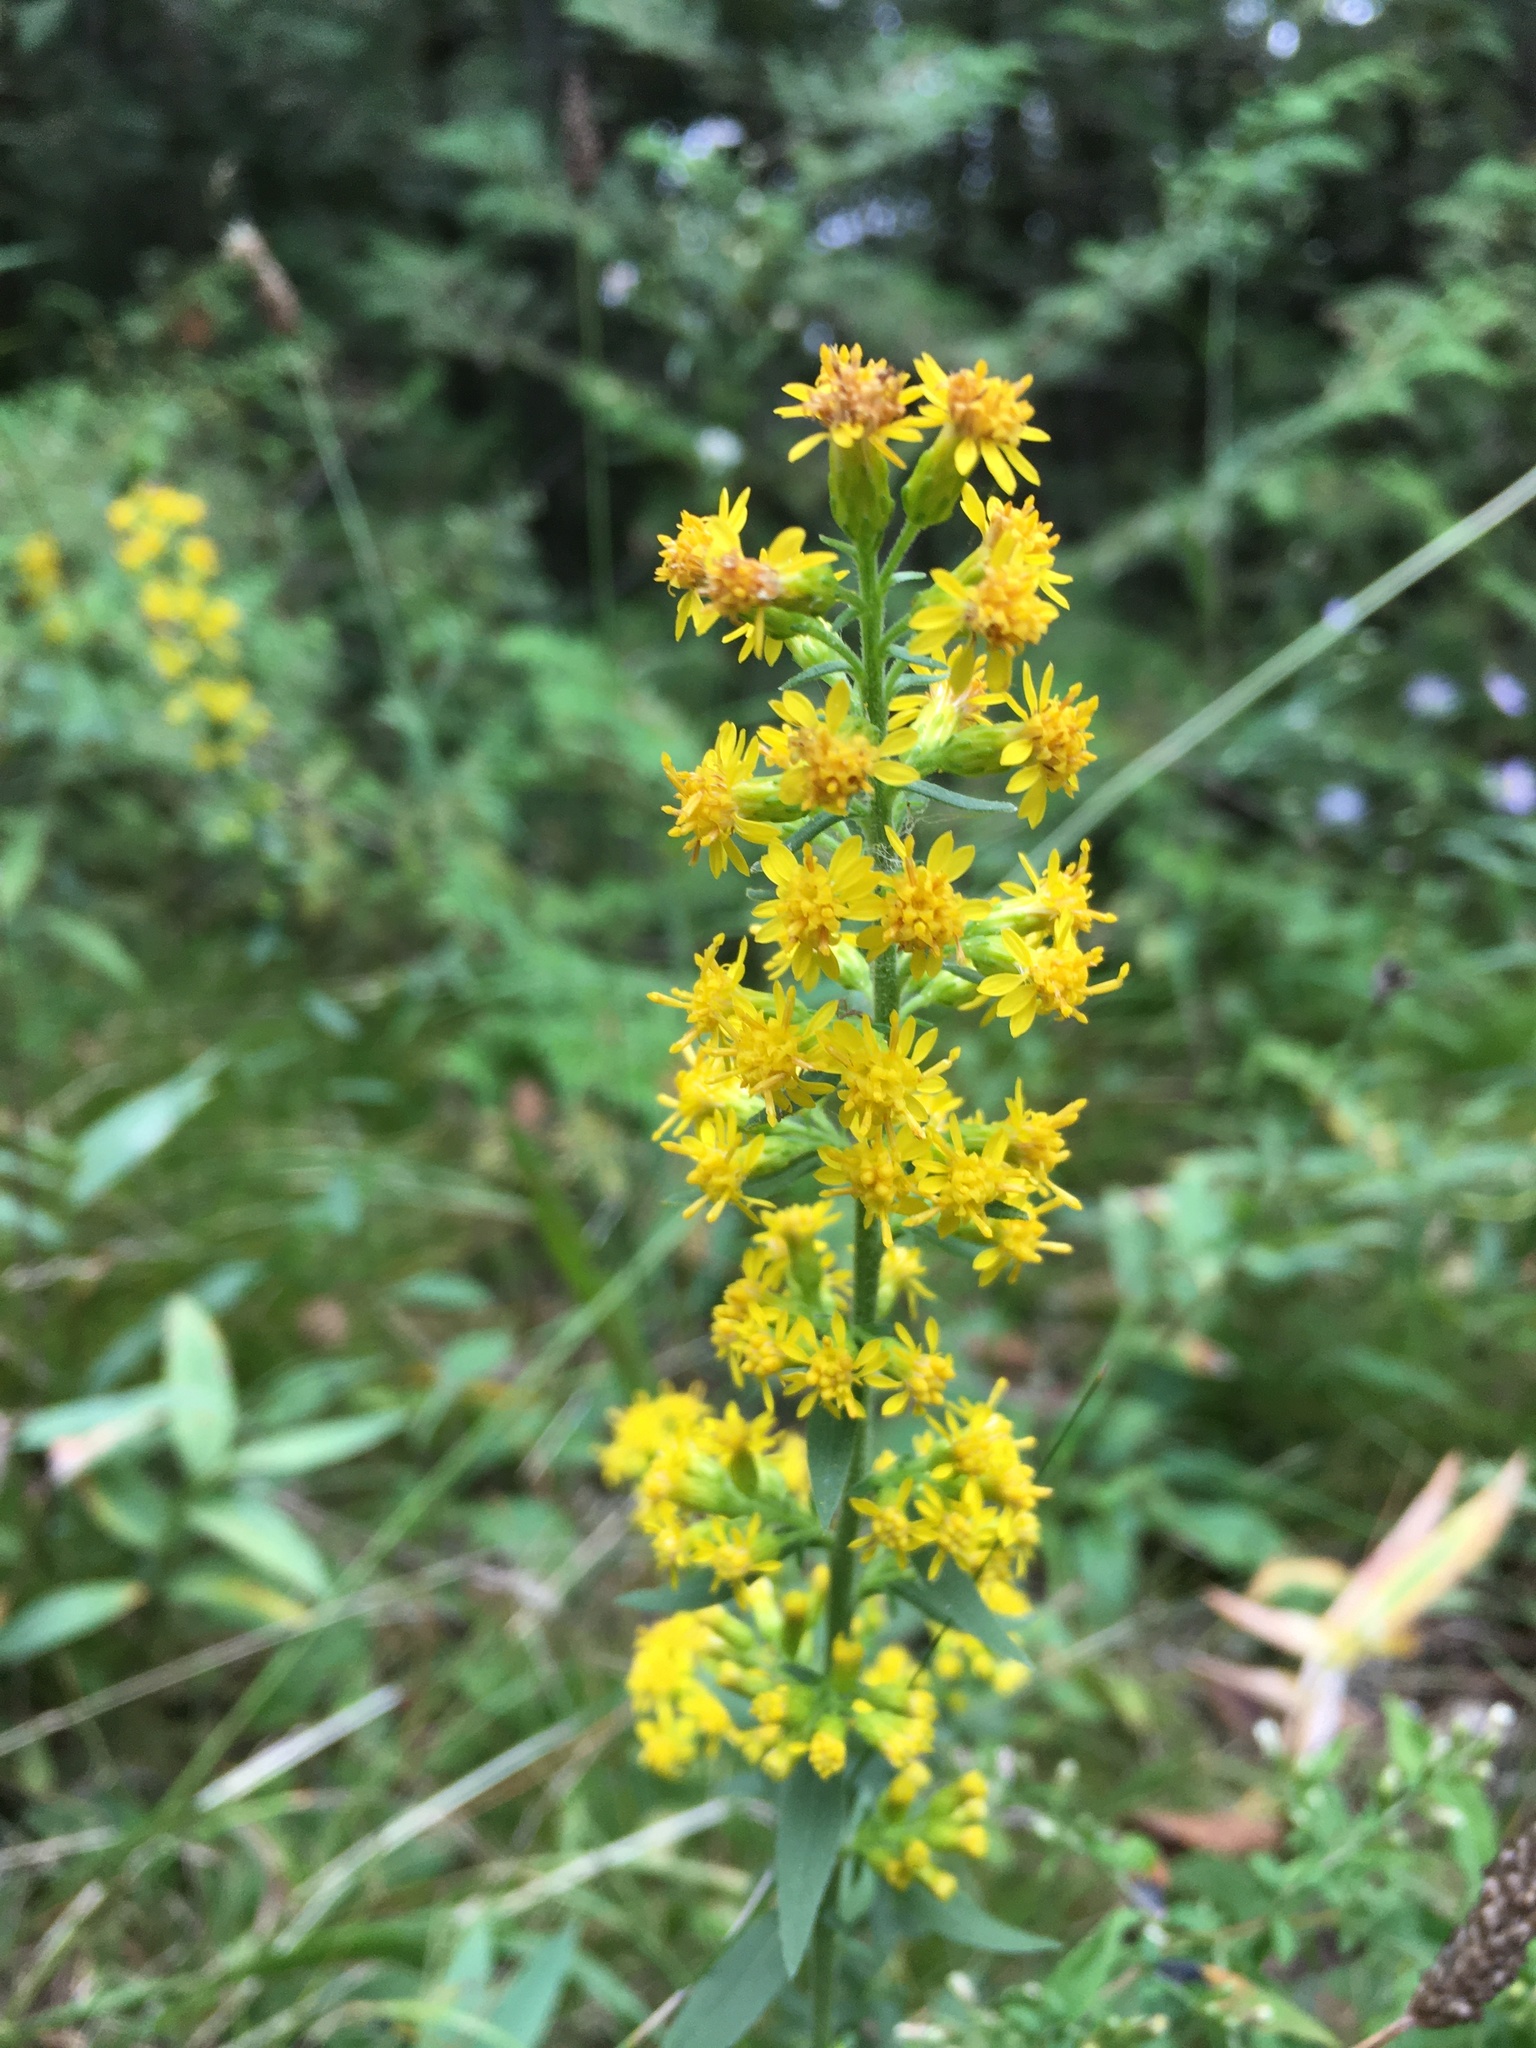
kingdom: Plantae
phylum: Tracheophyta
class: Magnoliopsida
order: Asterales
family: Asteraceae
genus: Solidago
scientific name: Solidago hispida
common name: Hairy goldenrod
